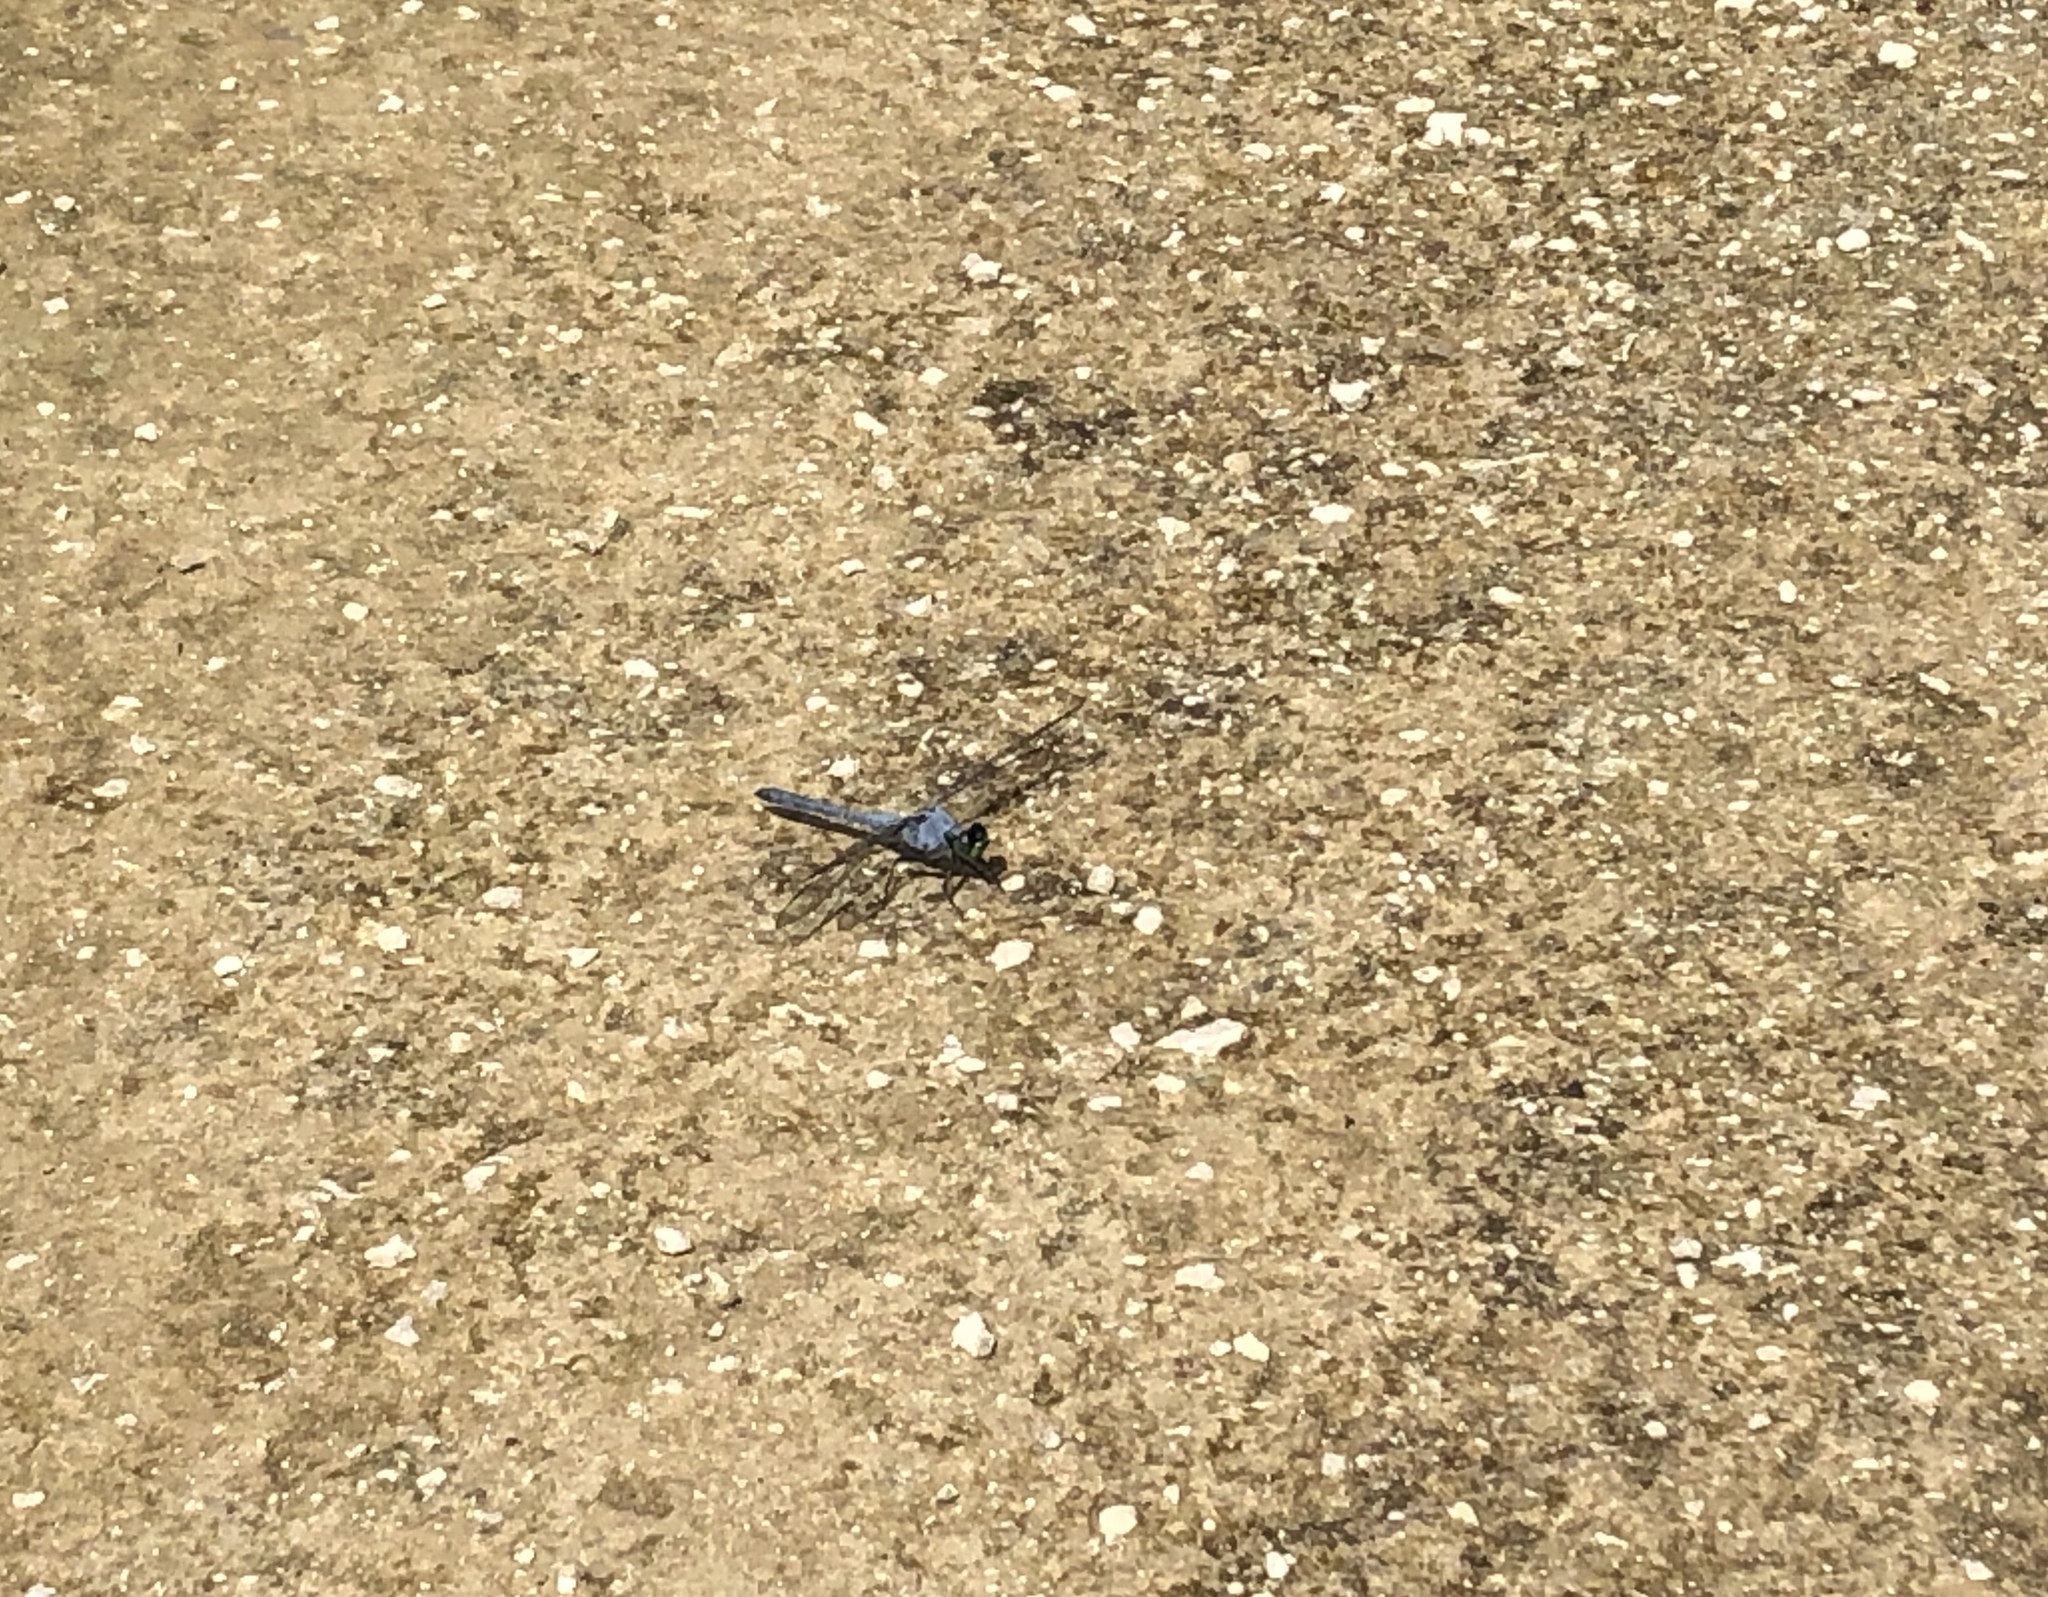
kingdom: Animalia
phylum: Arthropoda
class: Insecta
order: Odonata
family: Libellulidae
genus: Erythemis
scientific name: Erythemis simplicicollis
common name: Eastern pondhawk
